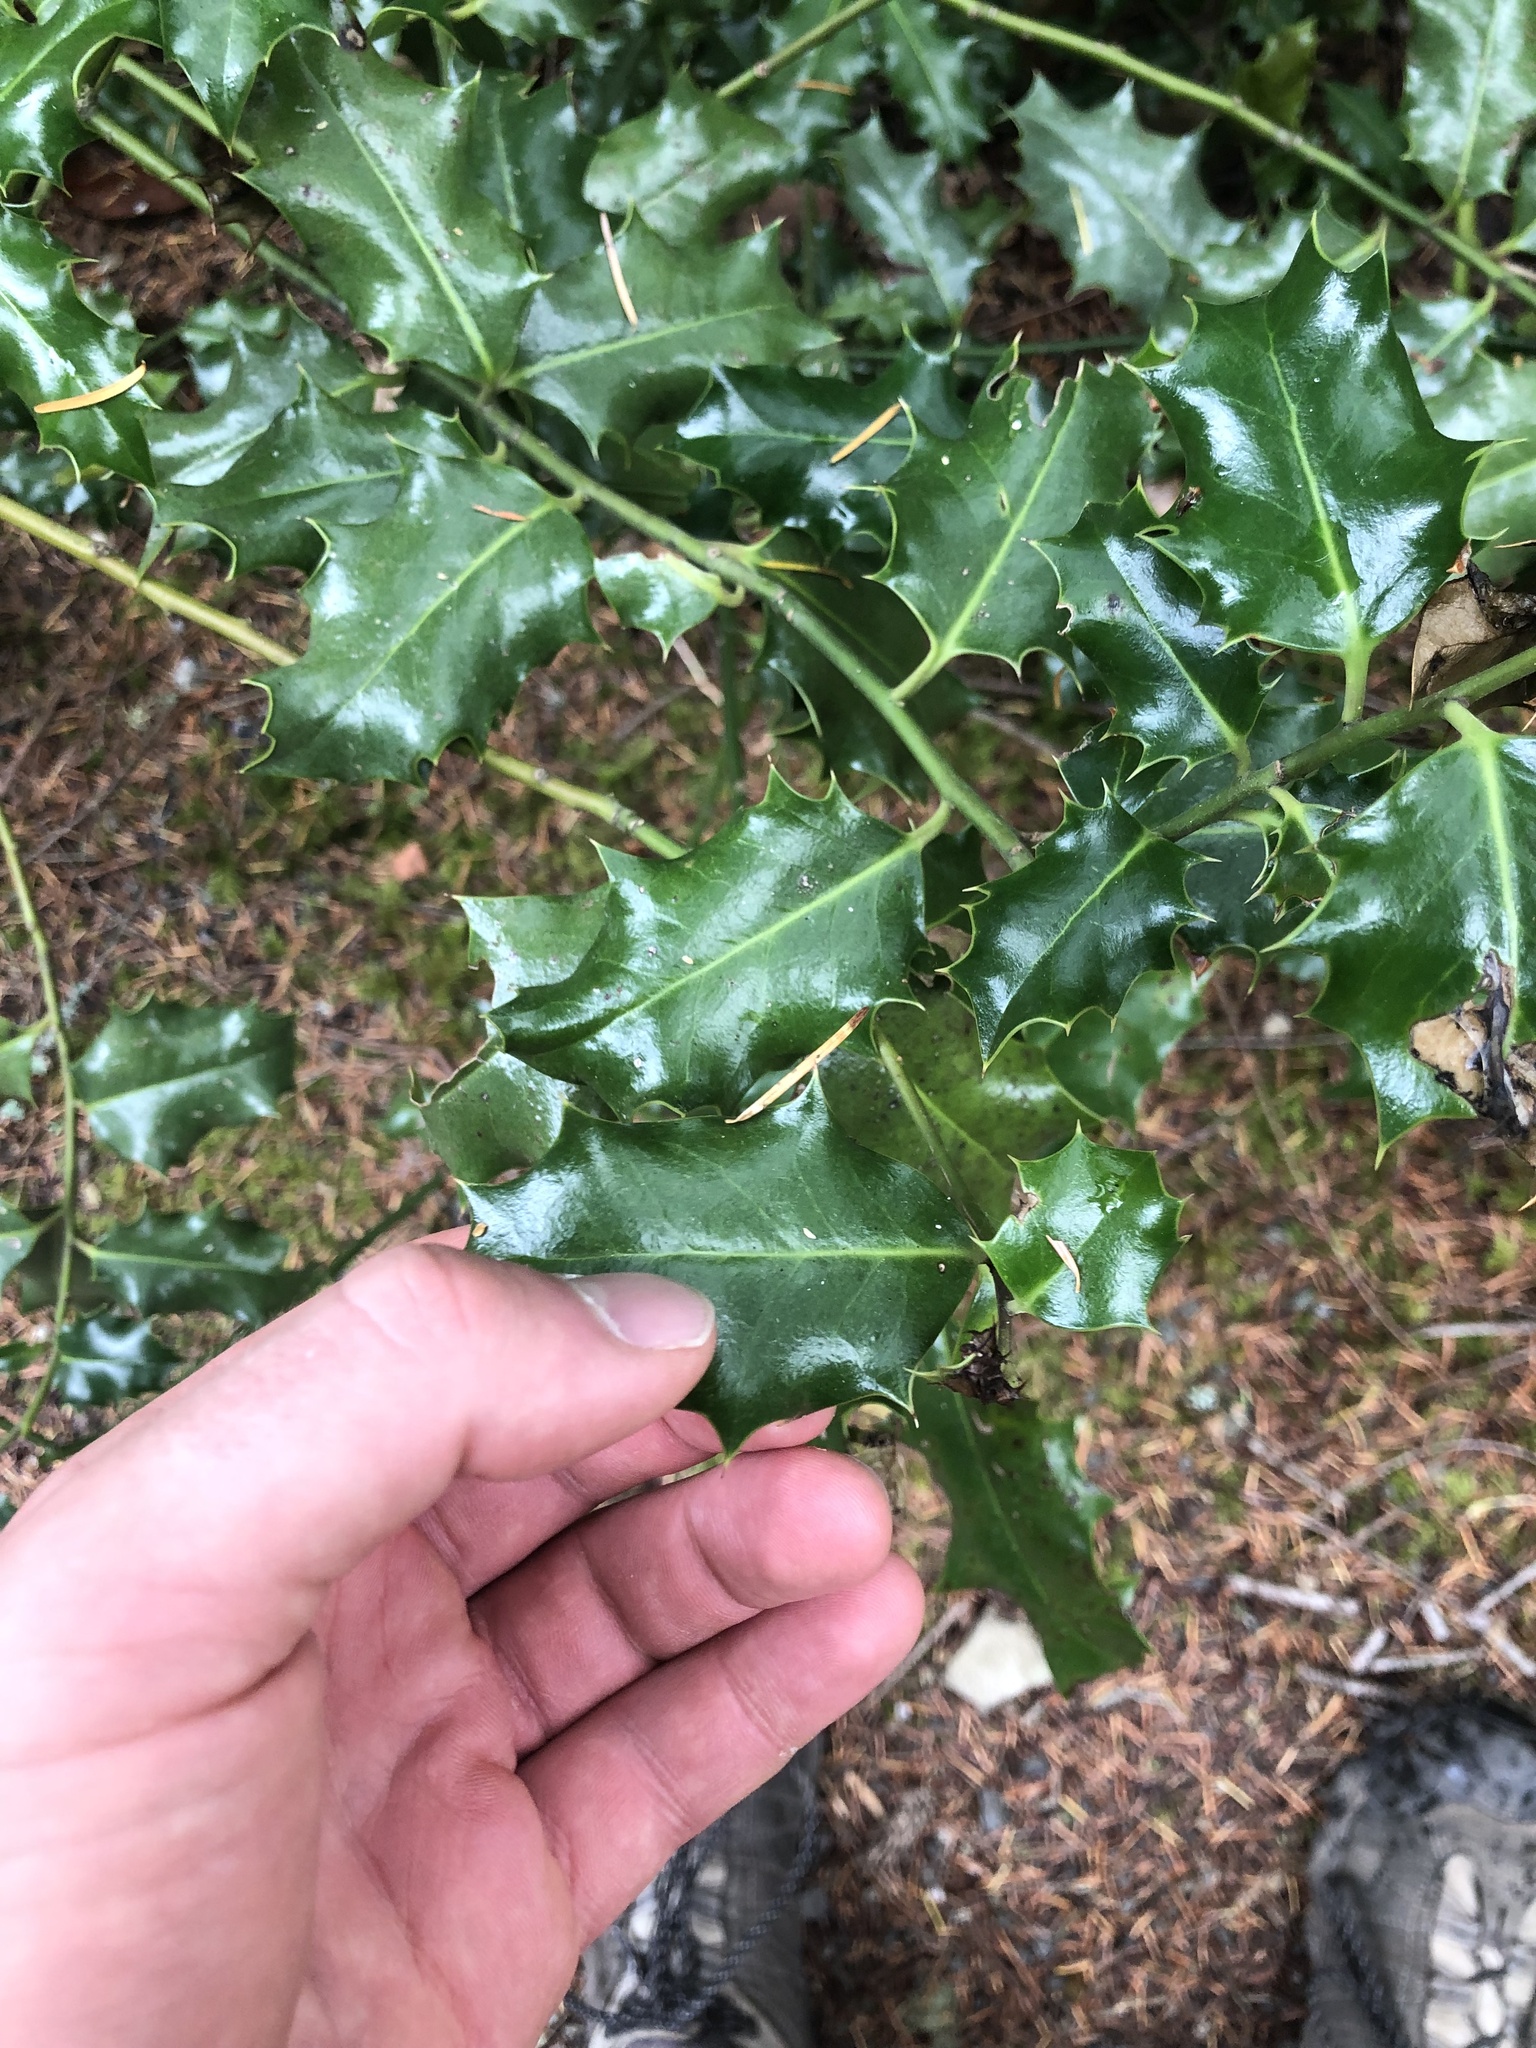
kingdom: Plantae
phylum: Tracheophyta
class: Magnoliopsida
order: Aquifoliales
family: Aquifoliaceae
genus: Ilex
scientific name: Ilex aquifolium
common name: English holly
